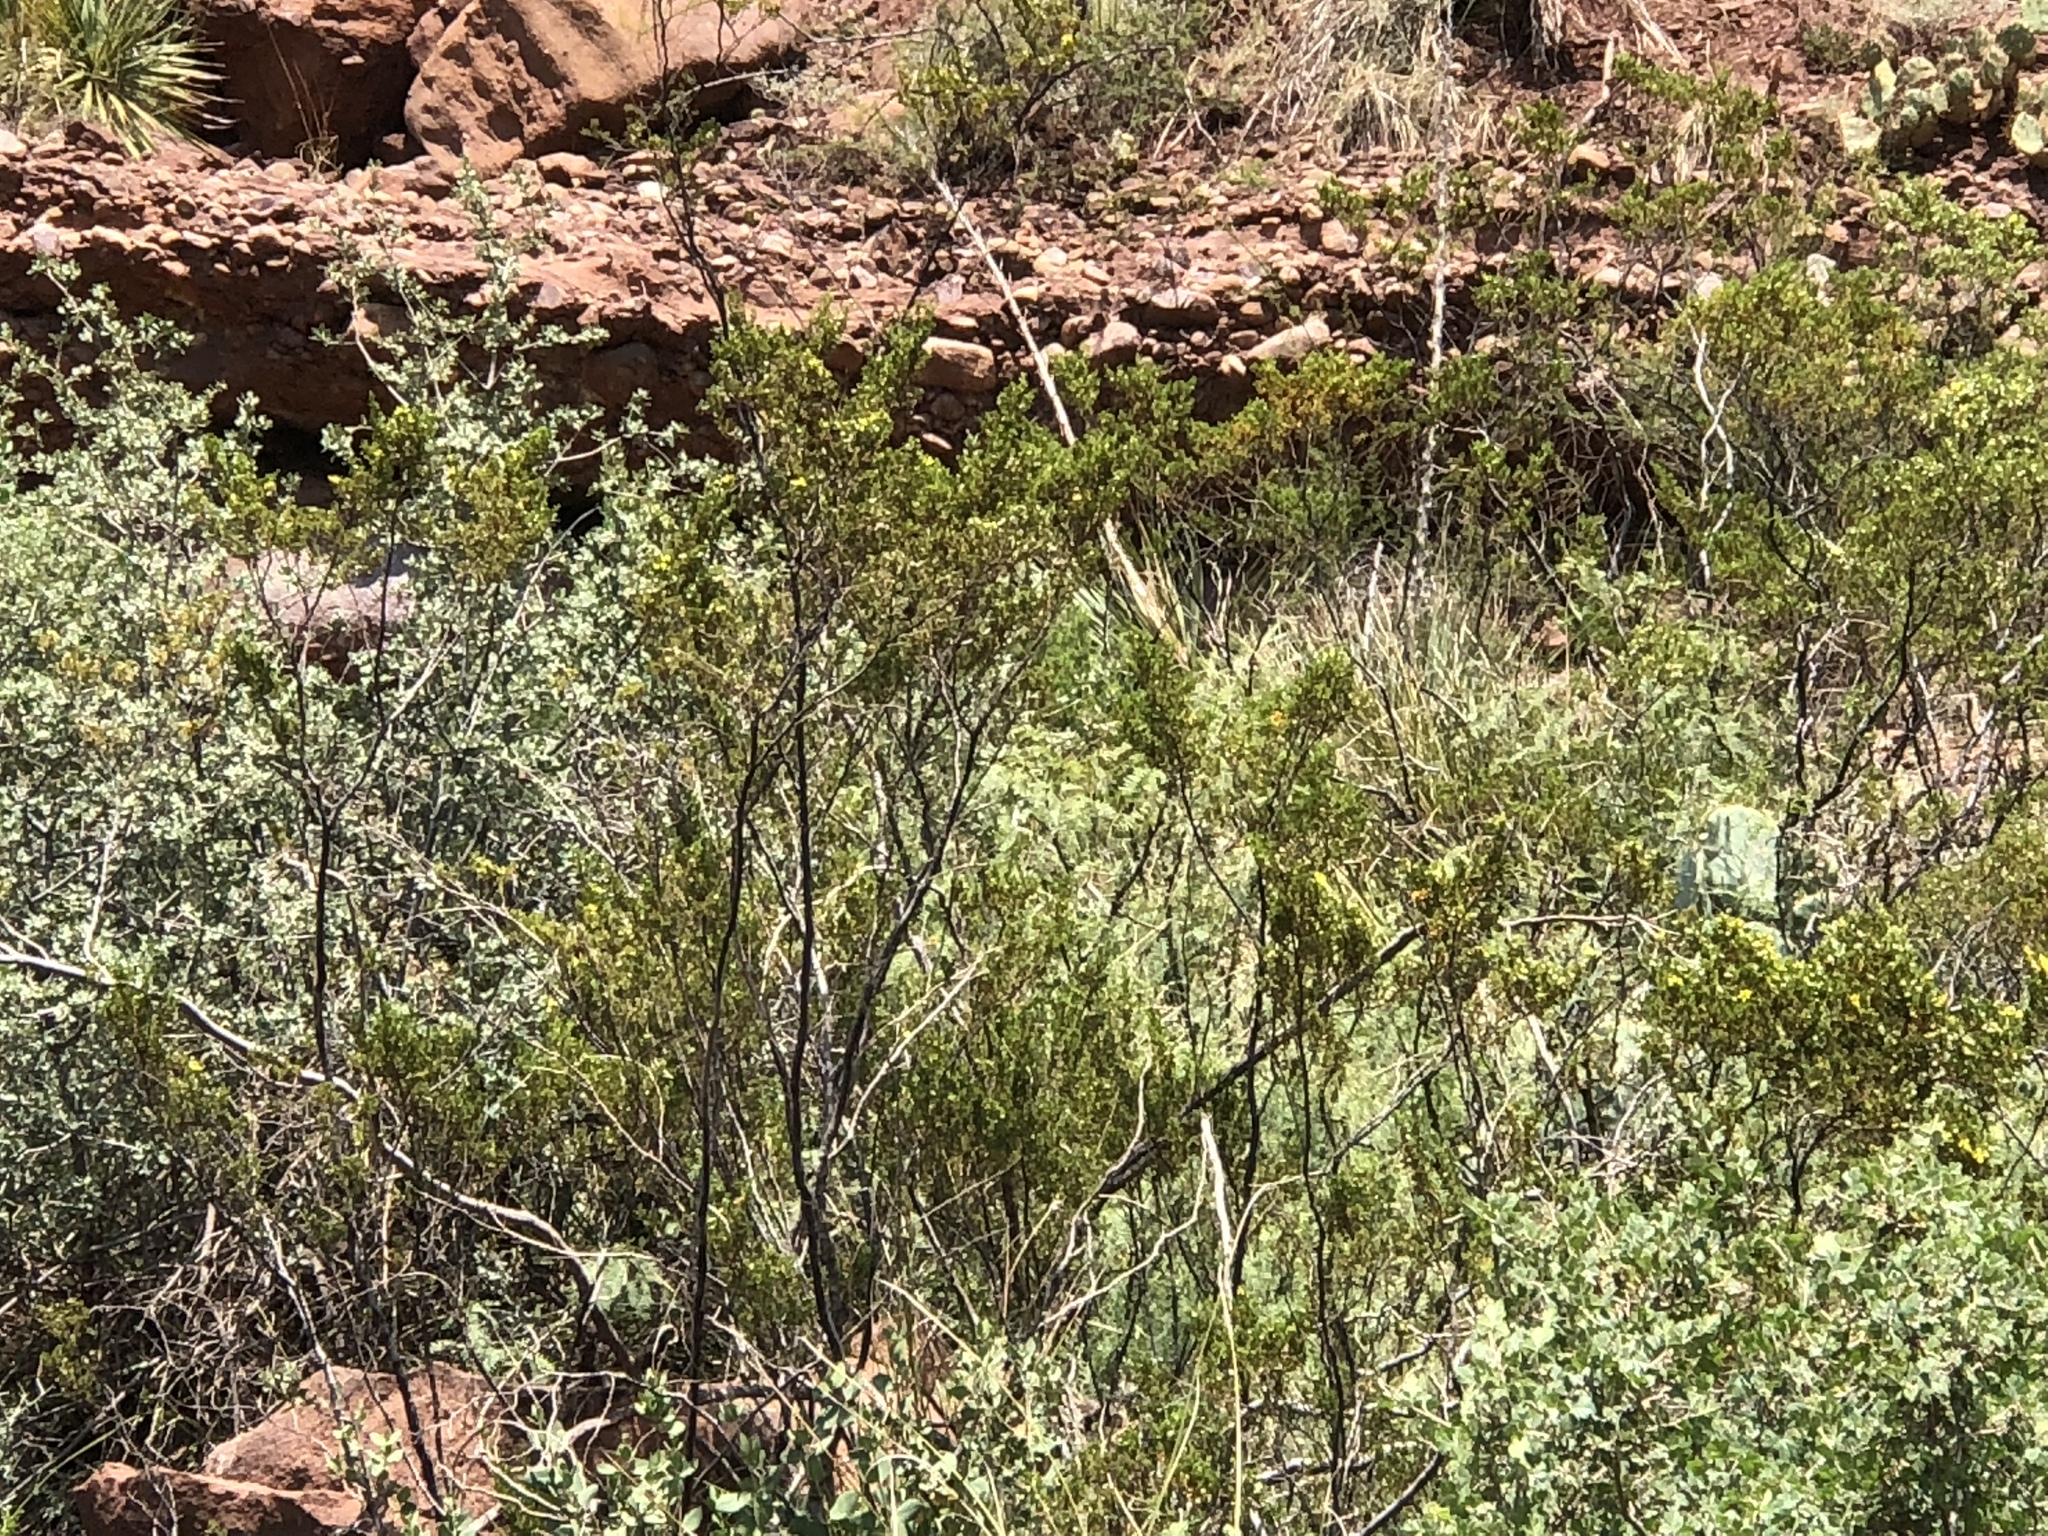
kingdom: Plantae
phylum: Tracheophyta
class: Magnoliopsida
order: Zygophyllales
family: Zygophyllaceae
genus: Larrea
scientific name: Larrea tridentata
